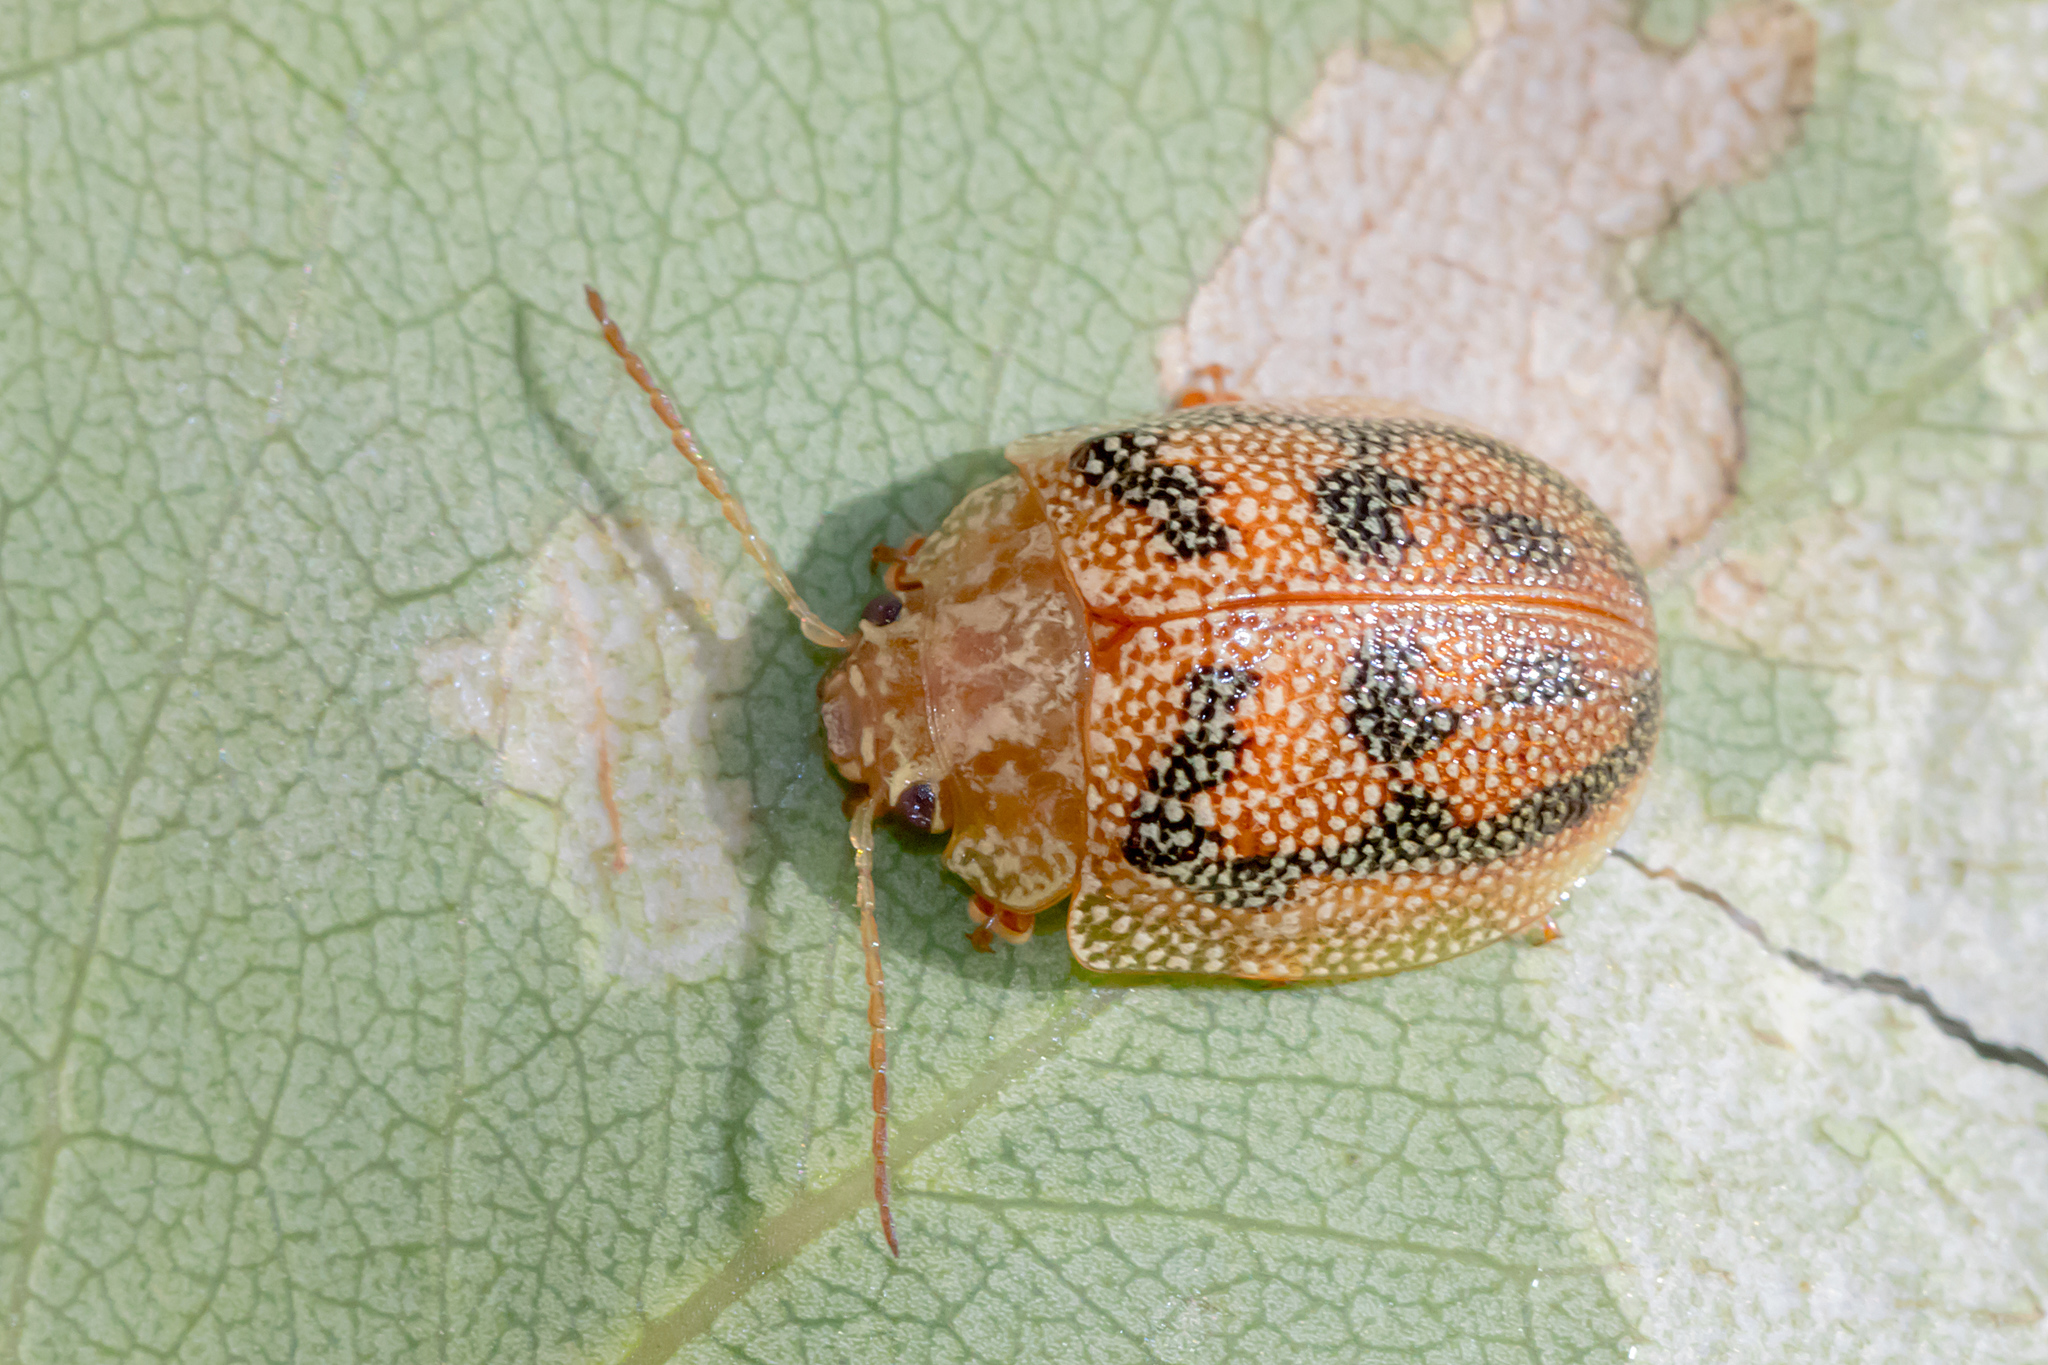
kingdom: Animalia
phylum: Arthropoda
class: Insecta
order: Coleoptera
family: Chrysomelidae
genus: Paropsis
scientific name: Paropsis
